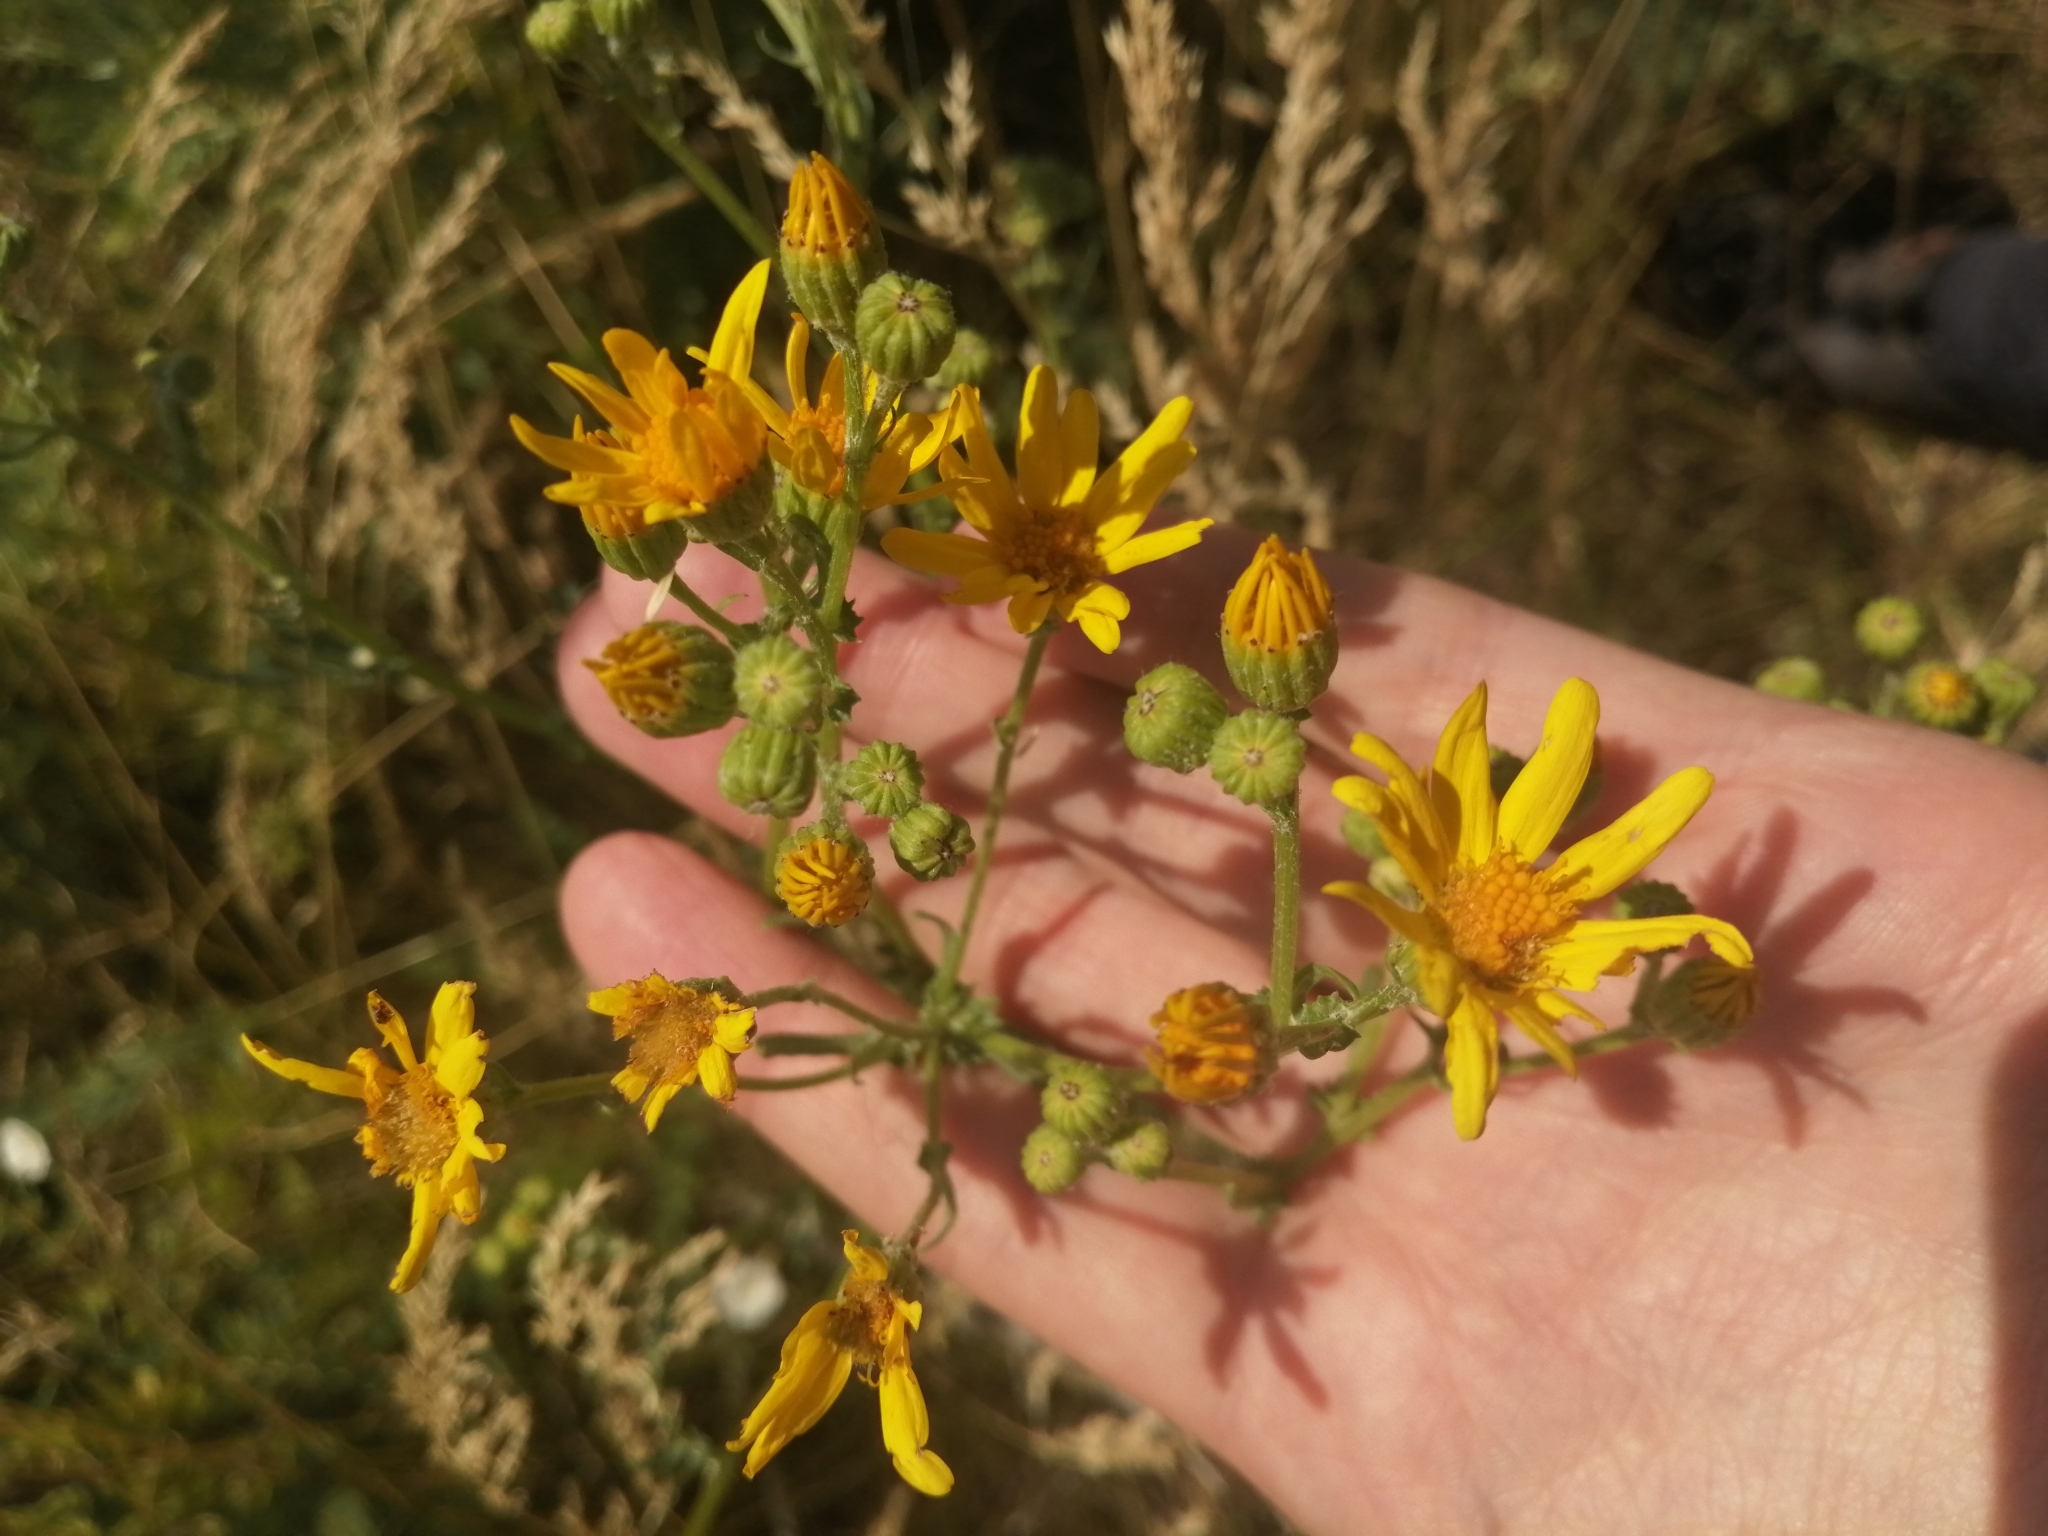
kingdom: Plantae
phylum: Tracheophyta
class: Magnoliopsida
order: Asterales
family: Asteraceae
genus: Jacobaea
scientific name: Jacobaea vulgaris
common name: Stinking willie
